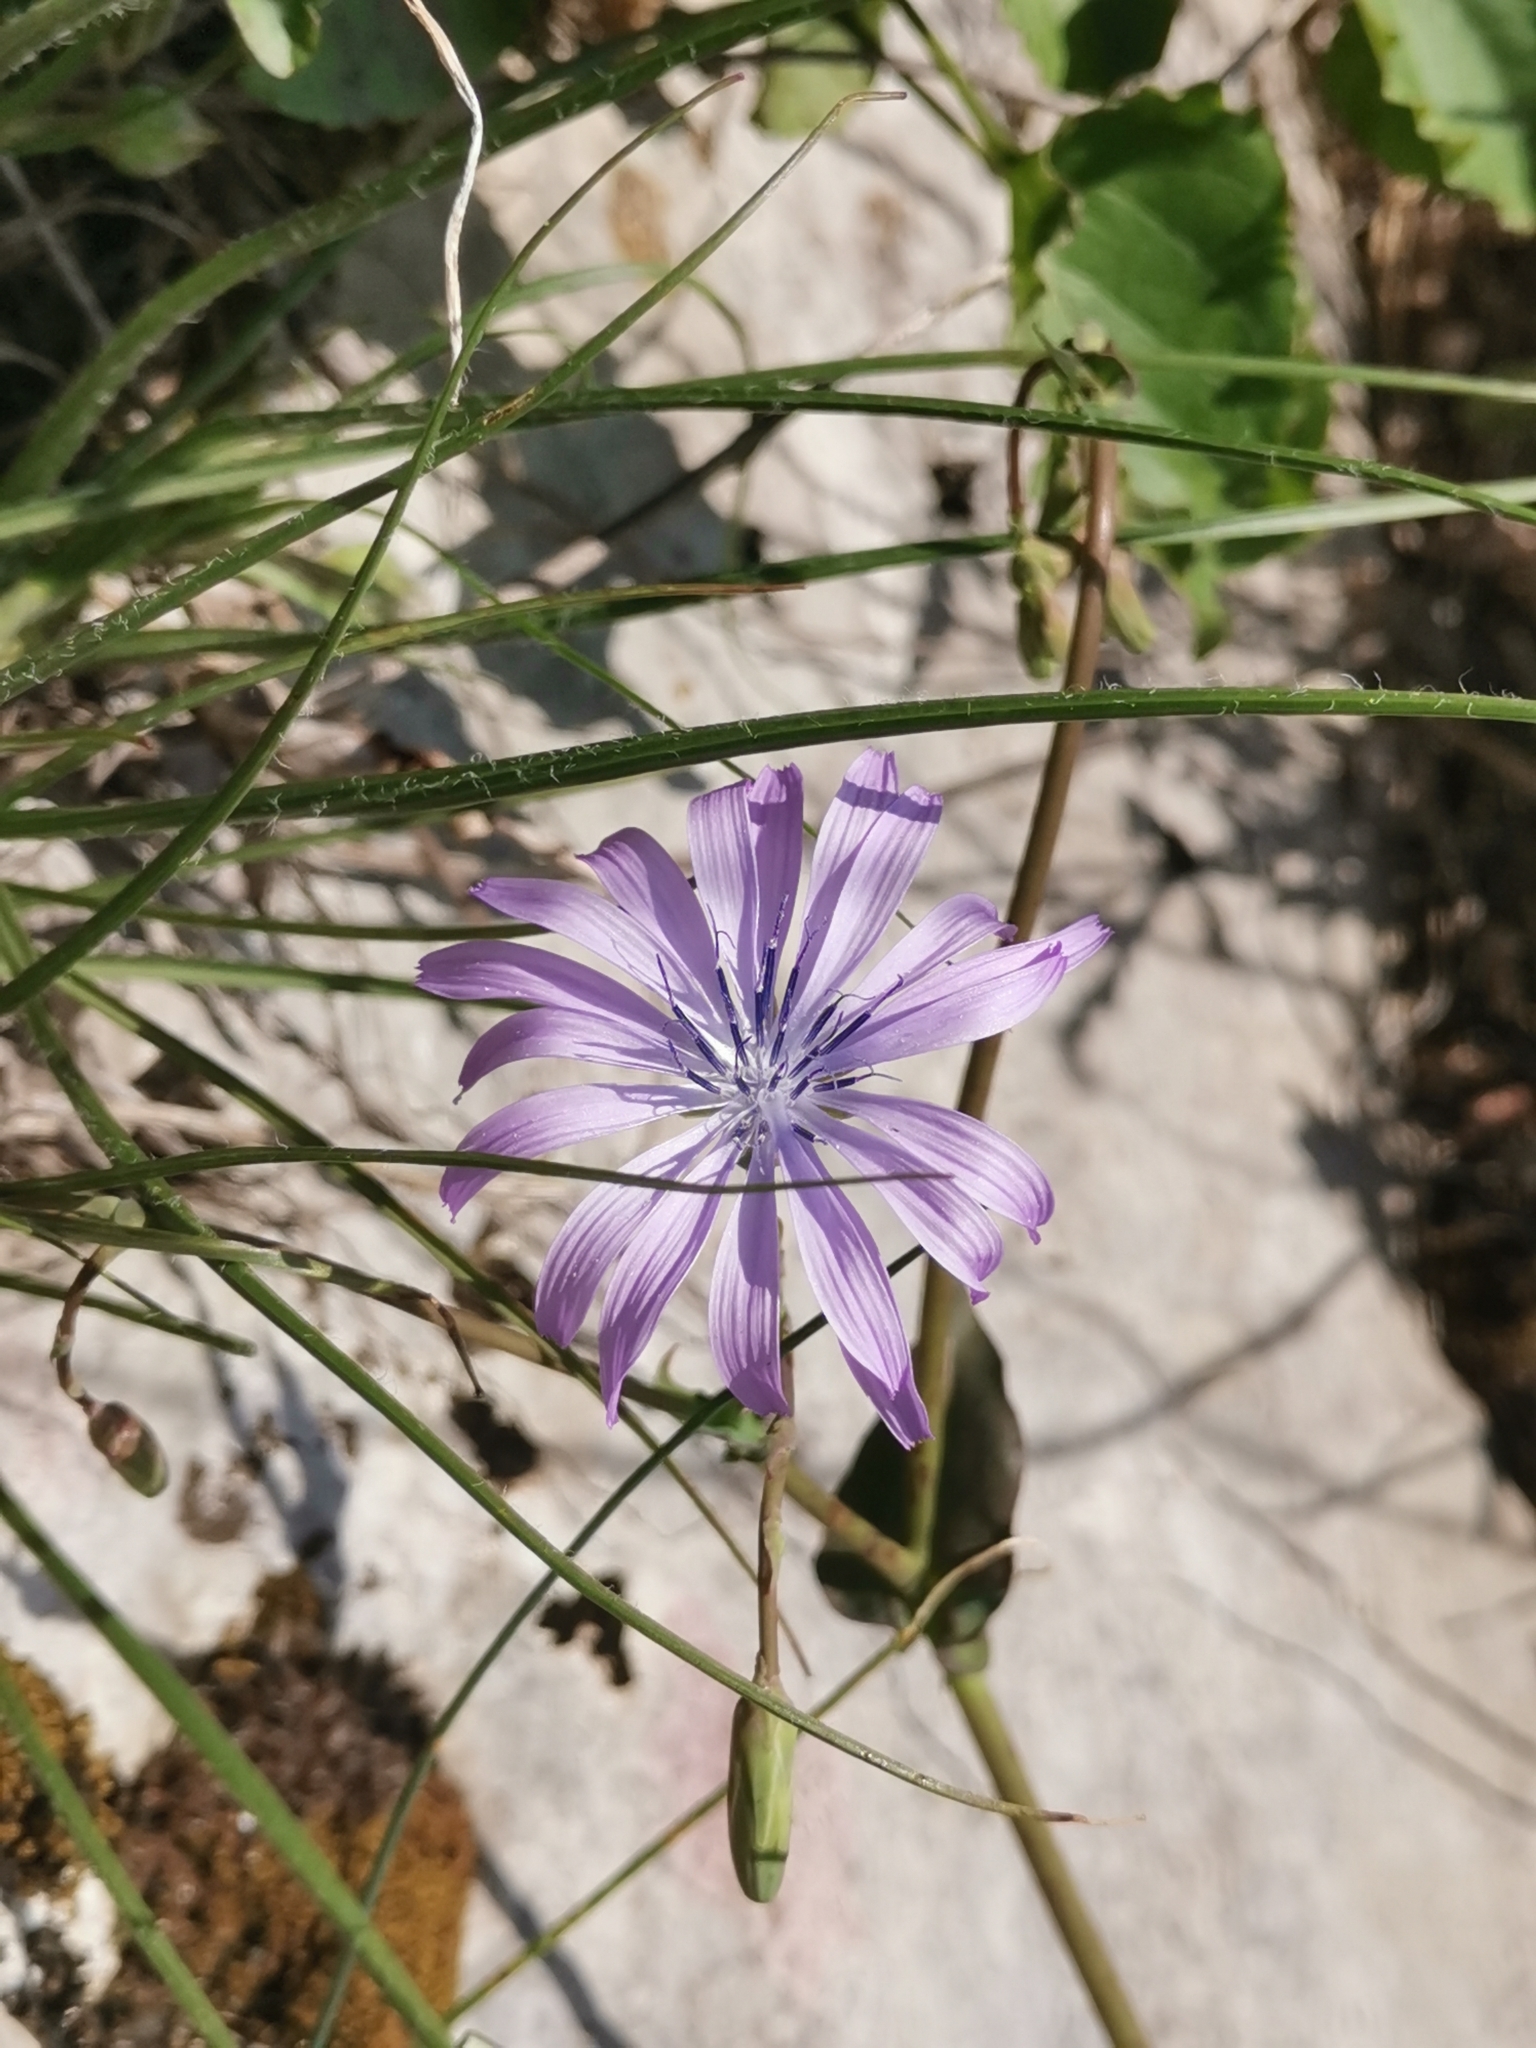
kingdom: Plantae
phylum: Tracheophyta
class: Magnoliopsida
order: Asterales
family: Asteraceae
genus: Lactuca
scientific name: Lactuca perennis
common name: Mountain lettuce
